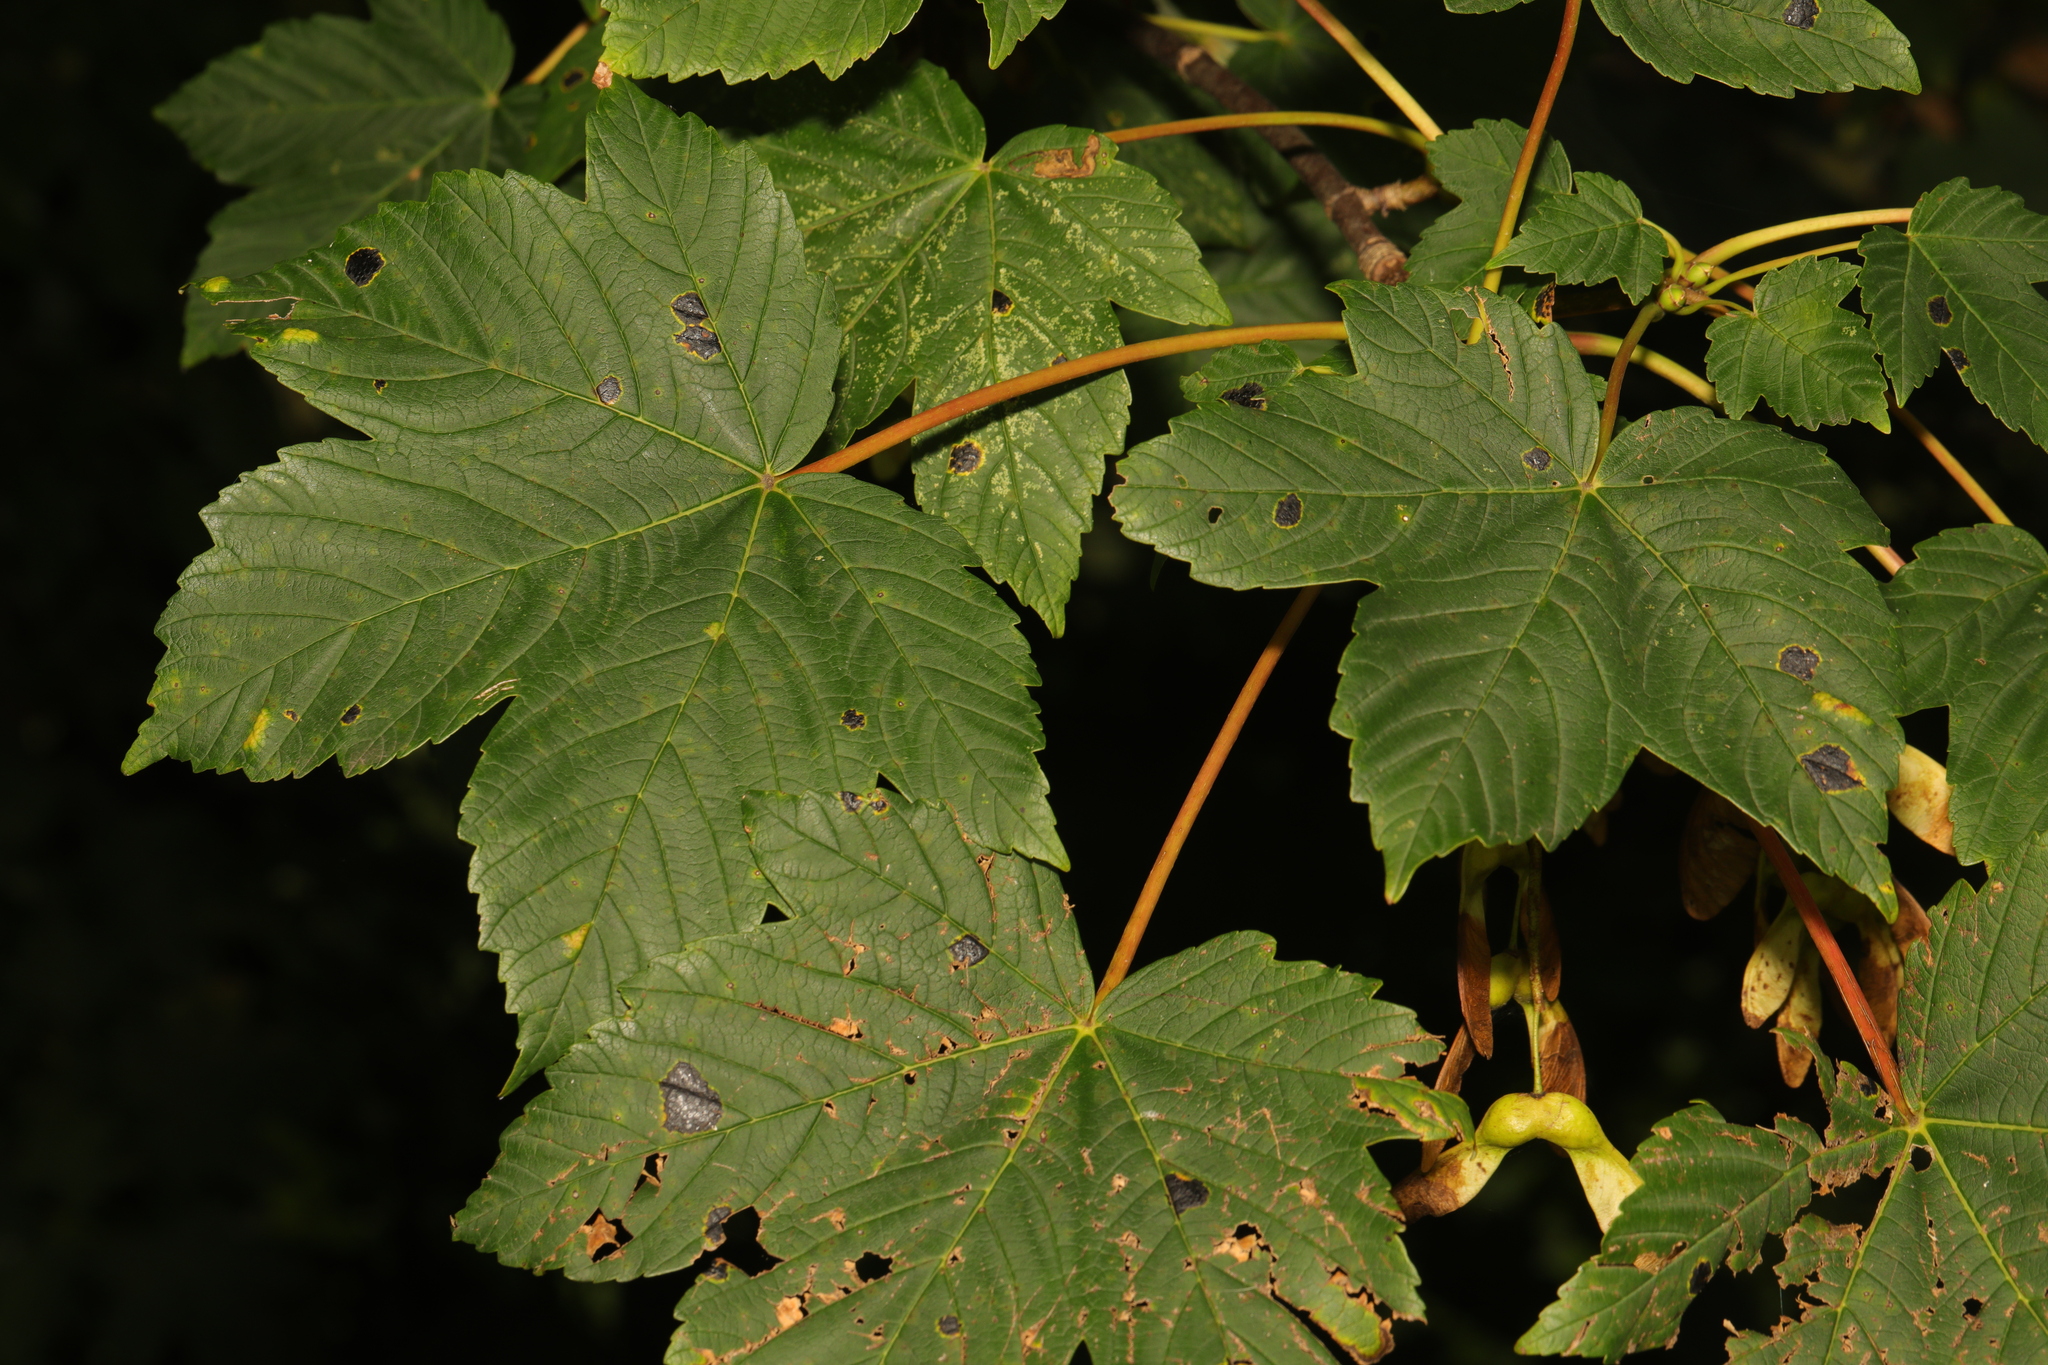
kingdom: Plantae
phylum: Tracheophyta
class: Magnoliopsida
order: Sapindales
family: Sapindaceae
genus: Acer
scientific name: Acer pseudoplatanus
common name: Sycamore
